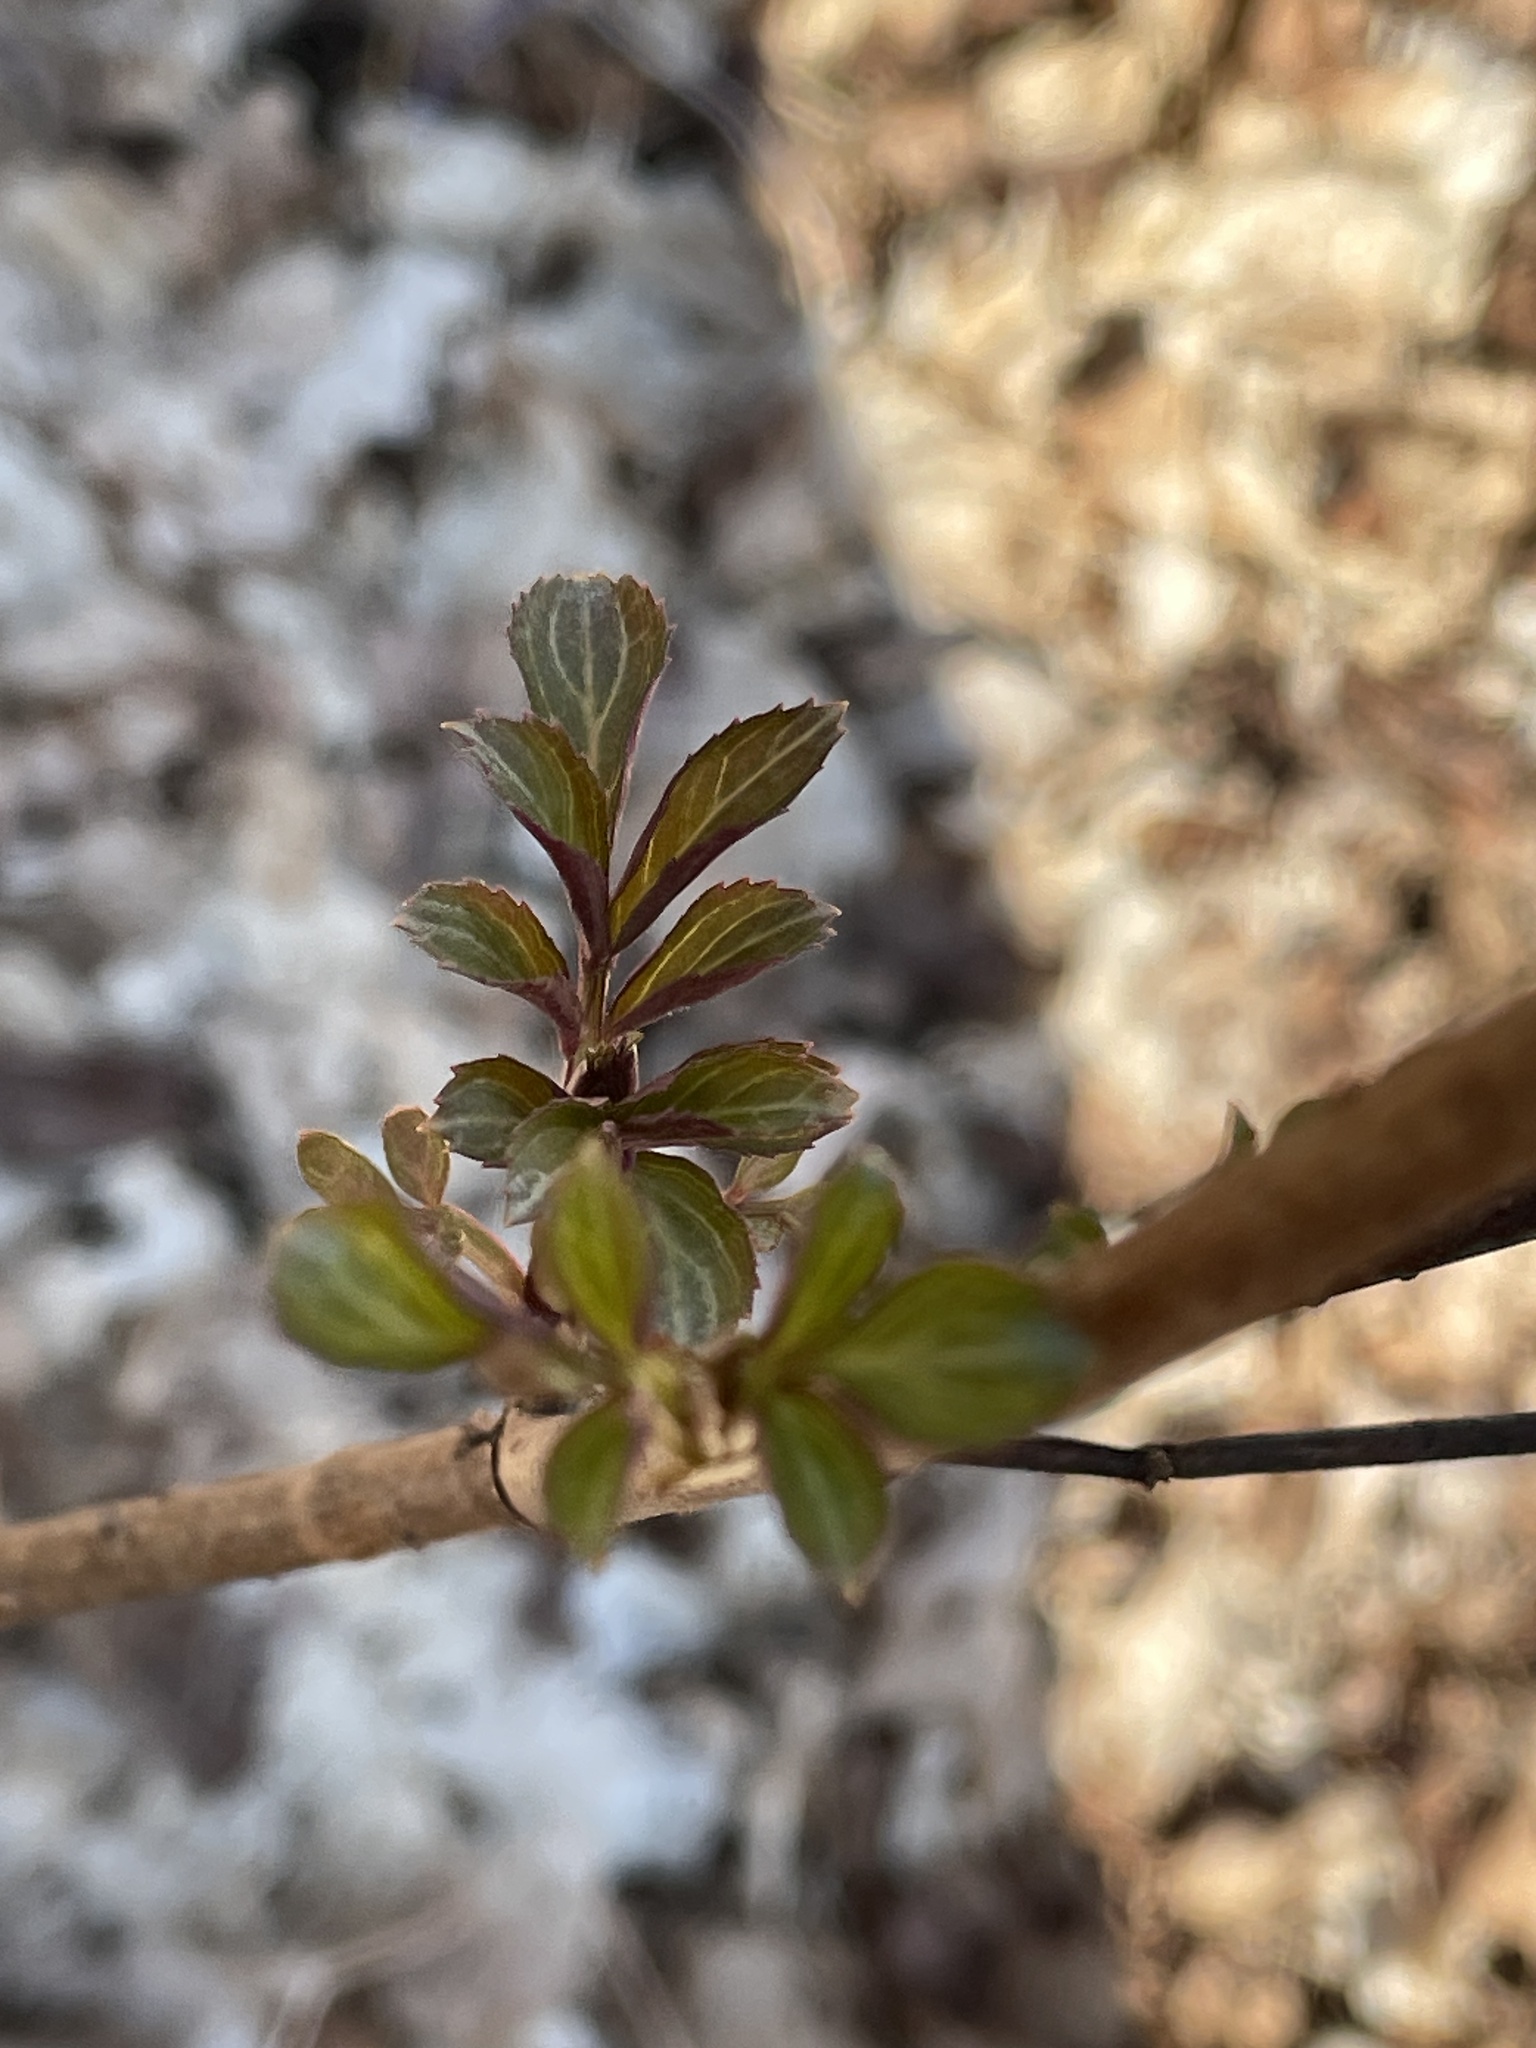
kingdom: Plantae
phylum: Tracheophyta
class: Magnoliopsida
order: Dipsacales
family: Viburnaceae
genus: Sambucus
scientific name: Sambucus racemosa
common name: Red-berried elder
